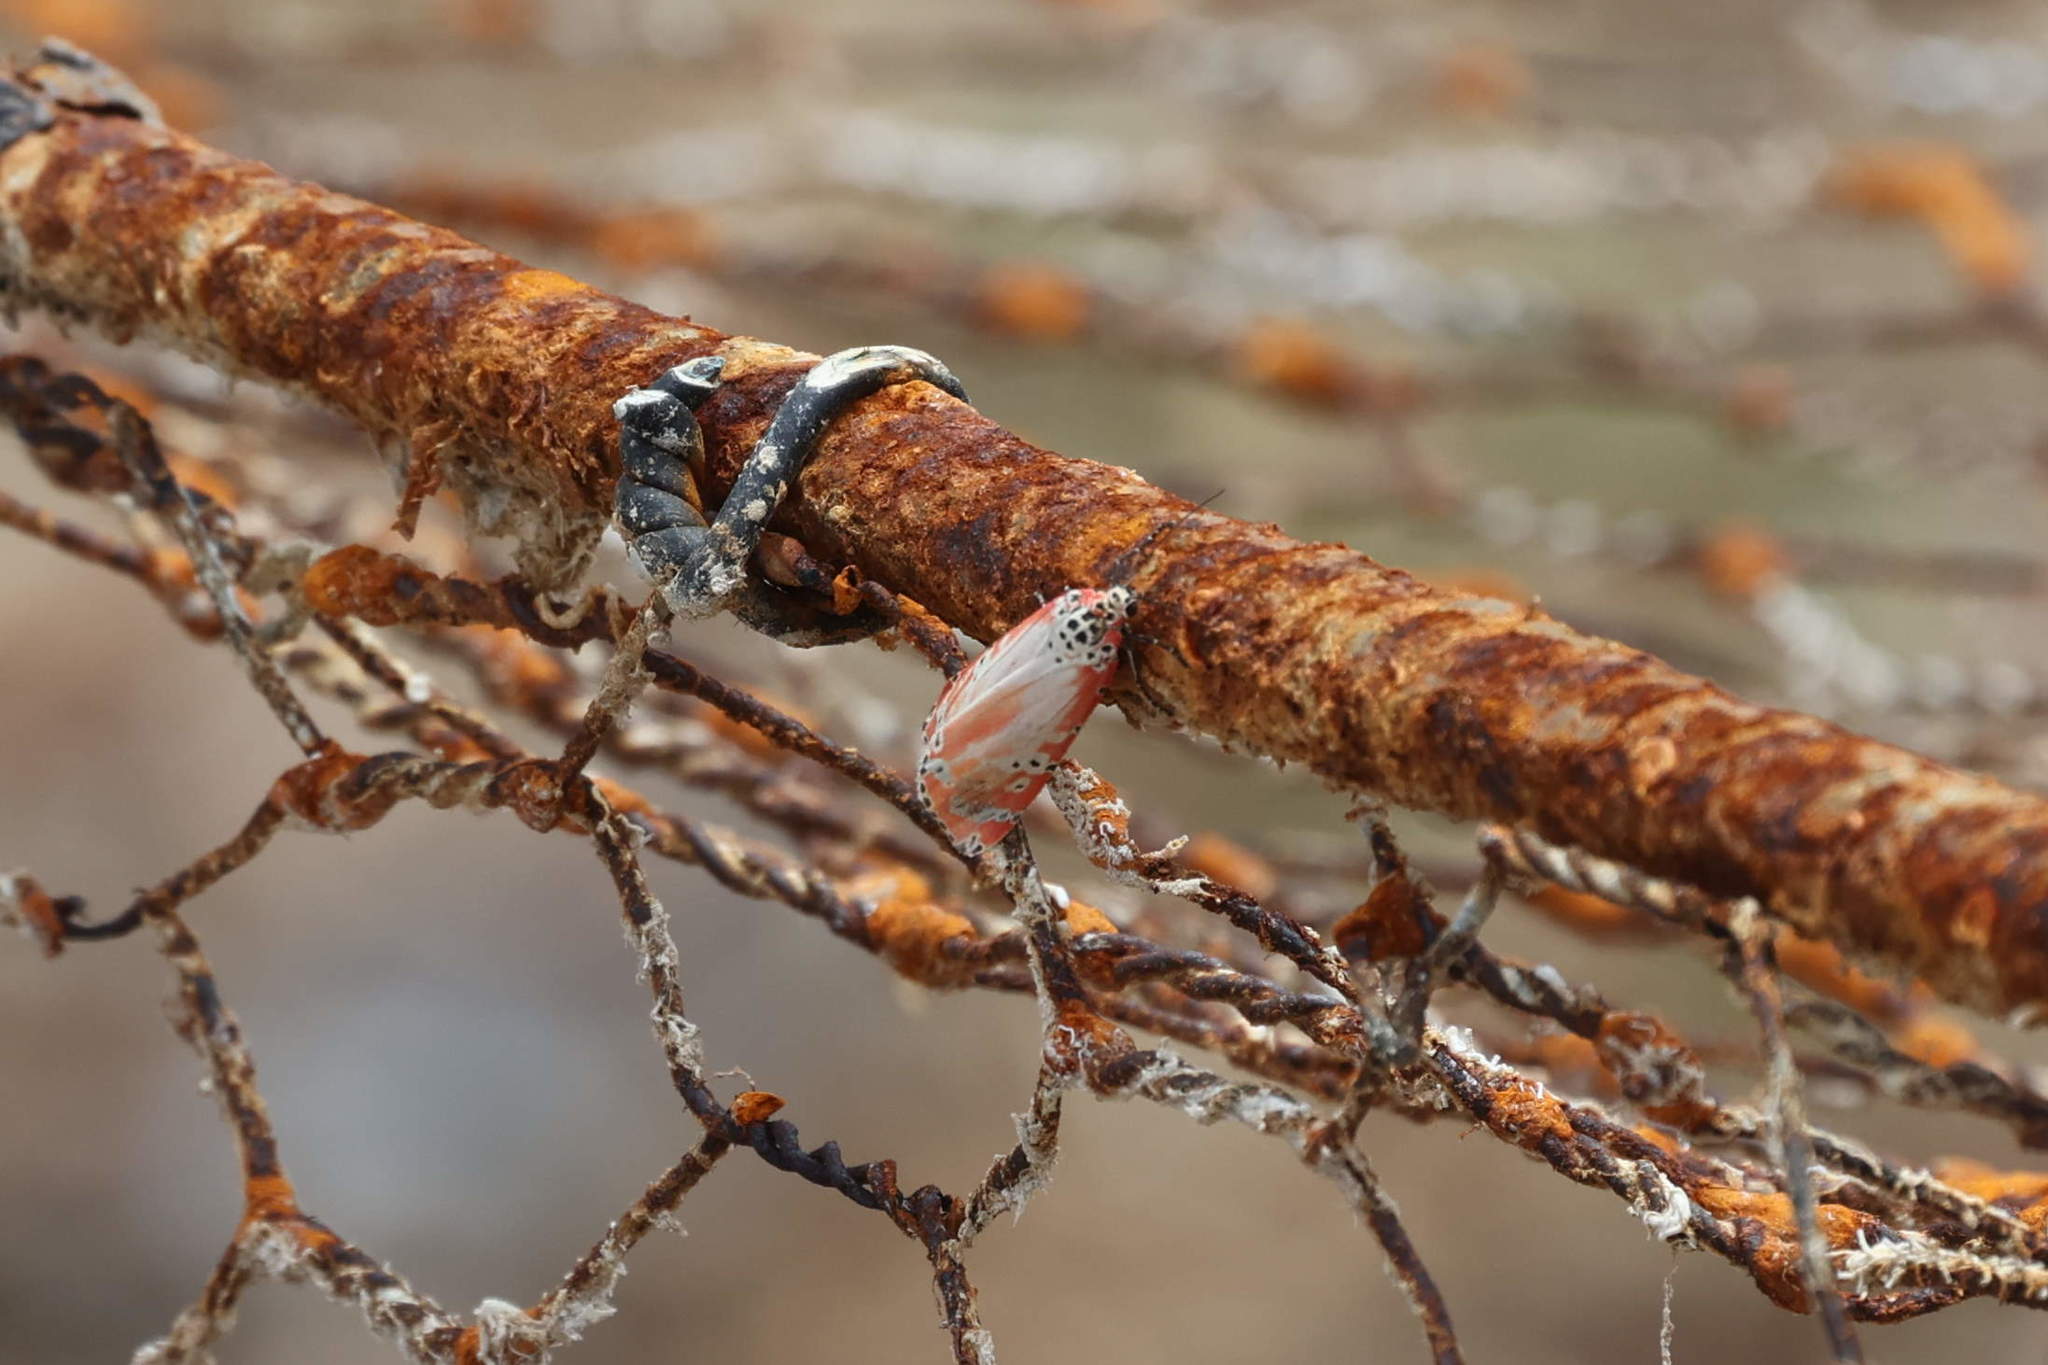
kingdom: Animalia
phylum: Arthropoda
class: Insecta
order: Lepidoptera
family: Erebidae
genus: Utetheisa
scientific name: Utetheisa ornatrix
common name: Beautiful utetheisa
